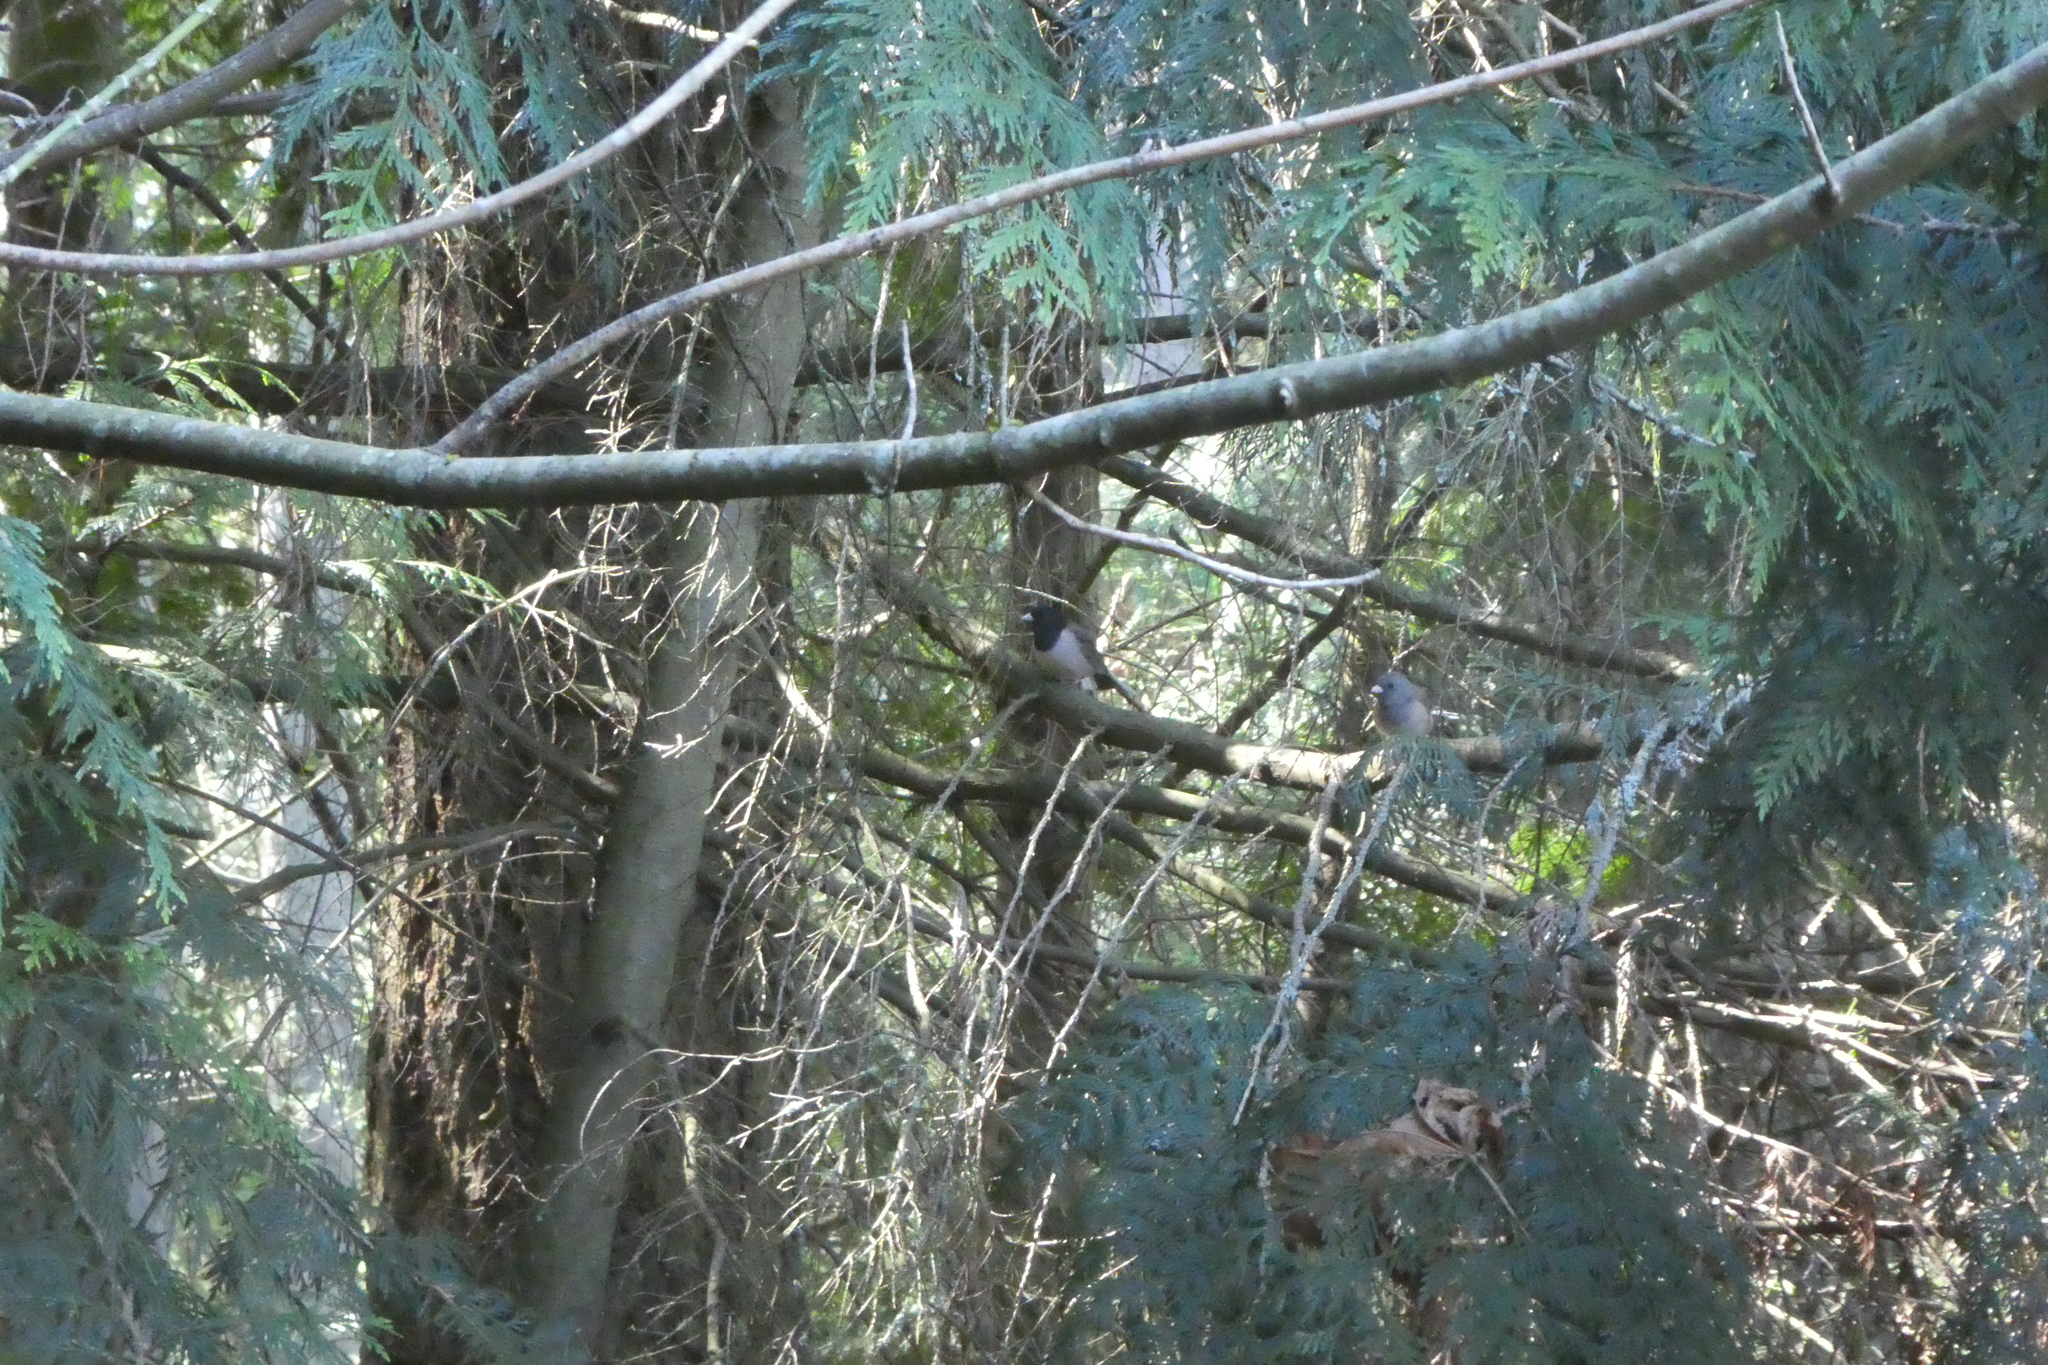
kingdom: Animalia
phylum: Chordata
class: Aves
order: Passeriformes
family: Passerellidae
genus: Junco
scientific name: Junco hyemalis
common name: Dark-eyed junco
